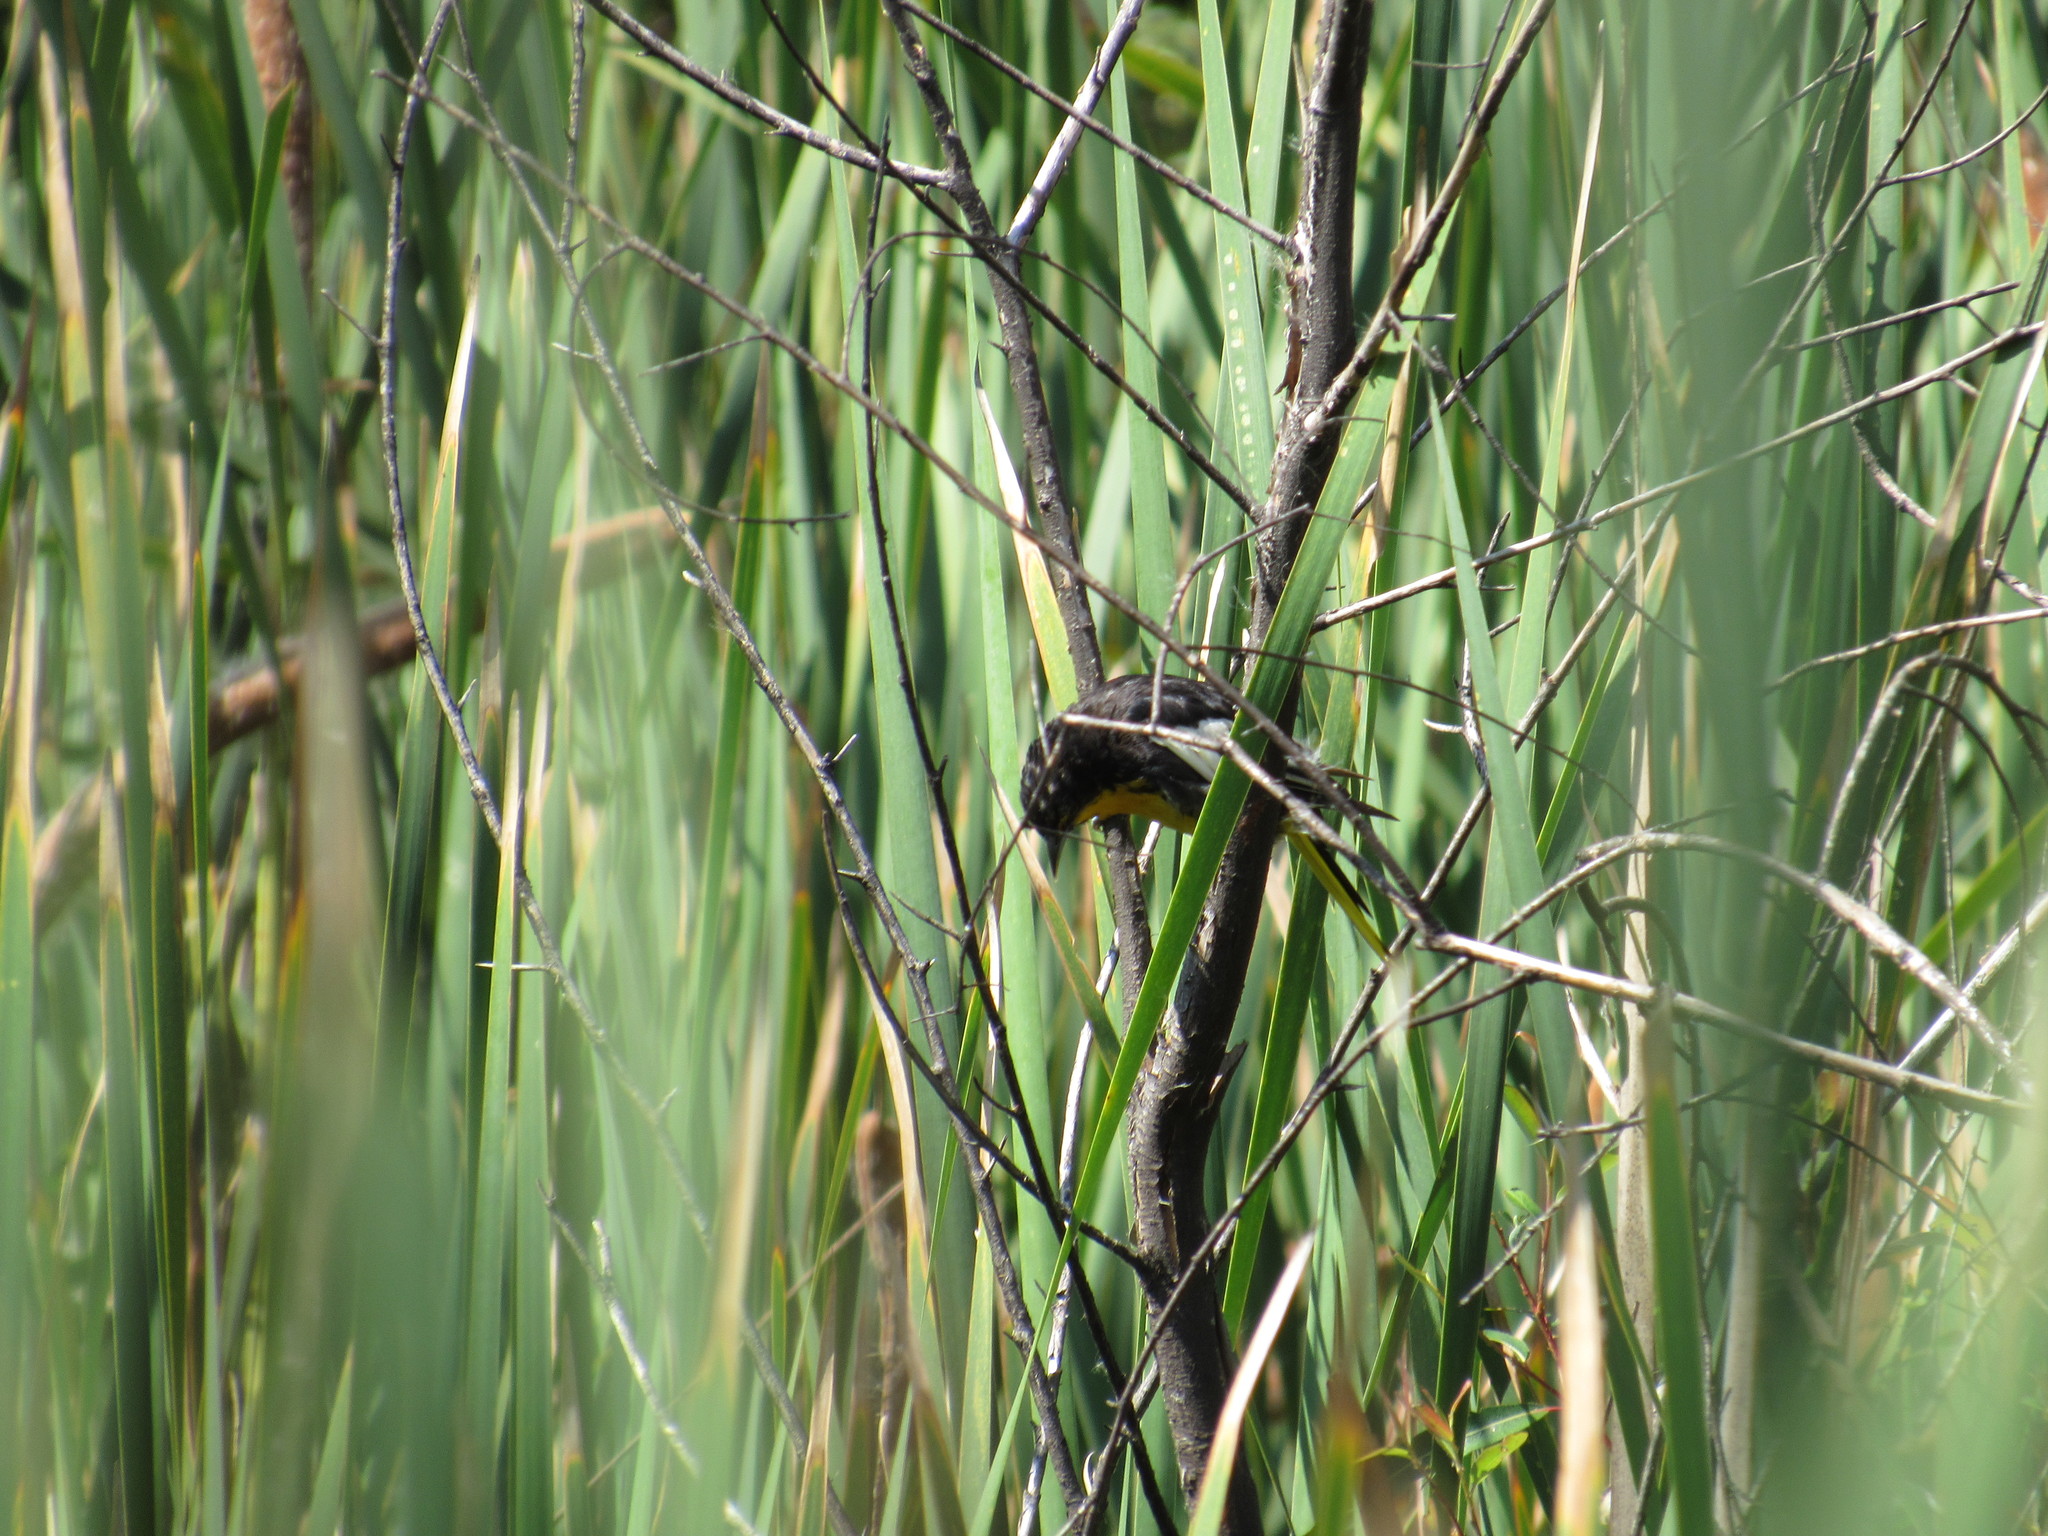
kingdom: Animalia
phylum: Chordata
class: Aves
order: Passeriformes
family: Icteridae
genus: Icterus
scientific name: Icterus abeillei
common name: Black-backed oriole
